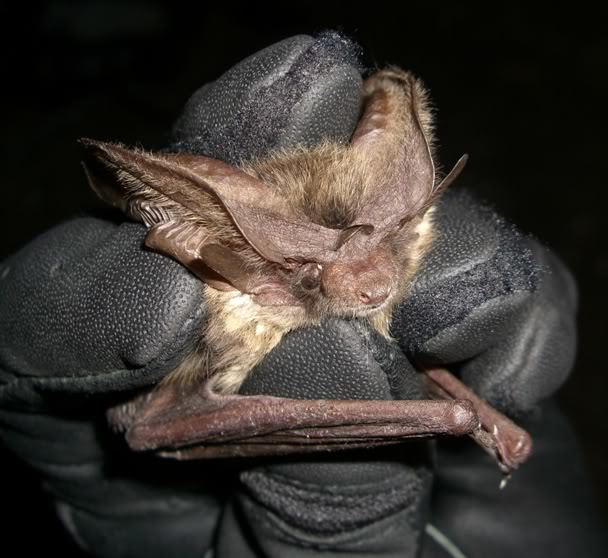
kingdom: Animalia
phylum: Chordata
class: Mammalia
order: Chiroptera
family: Vespertilionidae
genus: Idionycteris
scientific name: Idionycteris phyllotis
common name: Allen's big-eared bat
